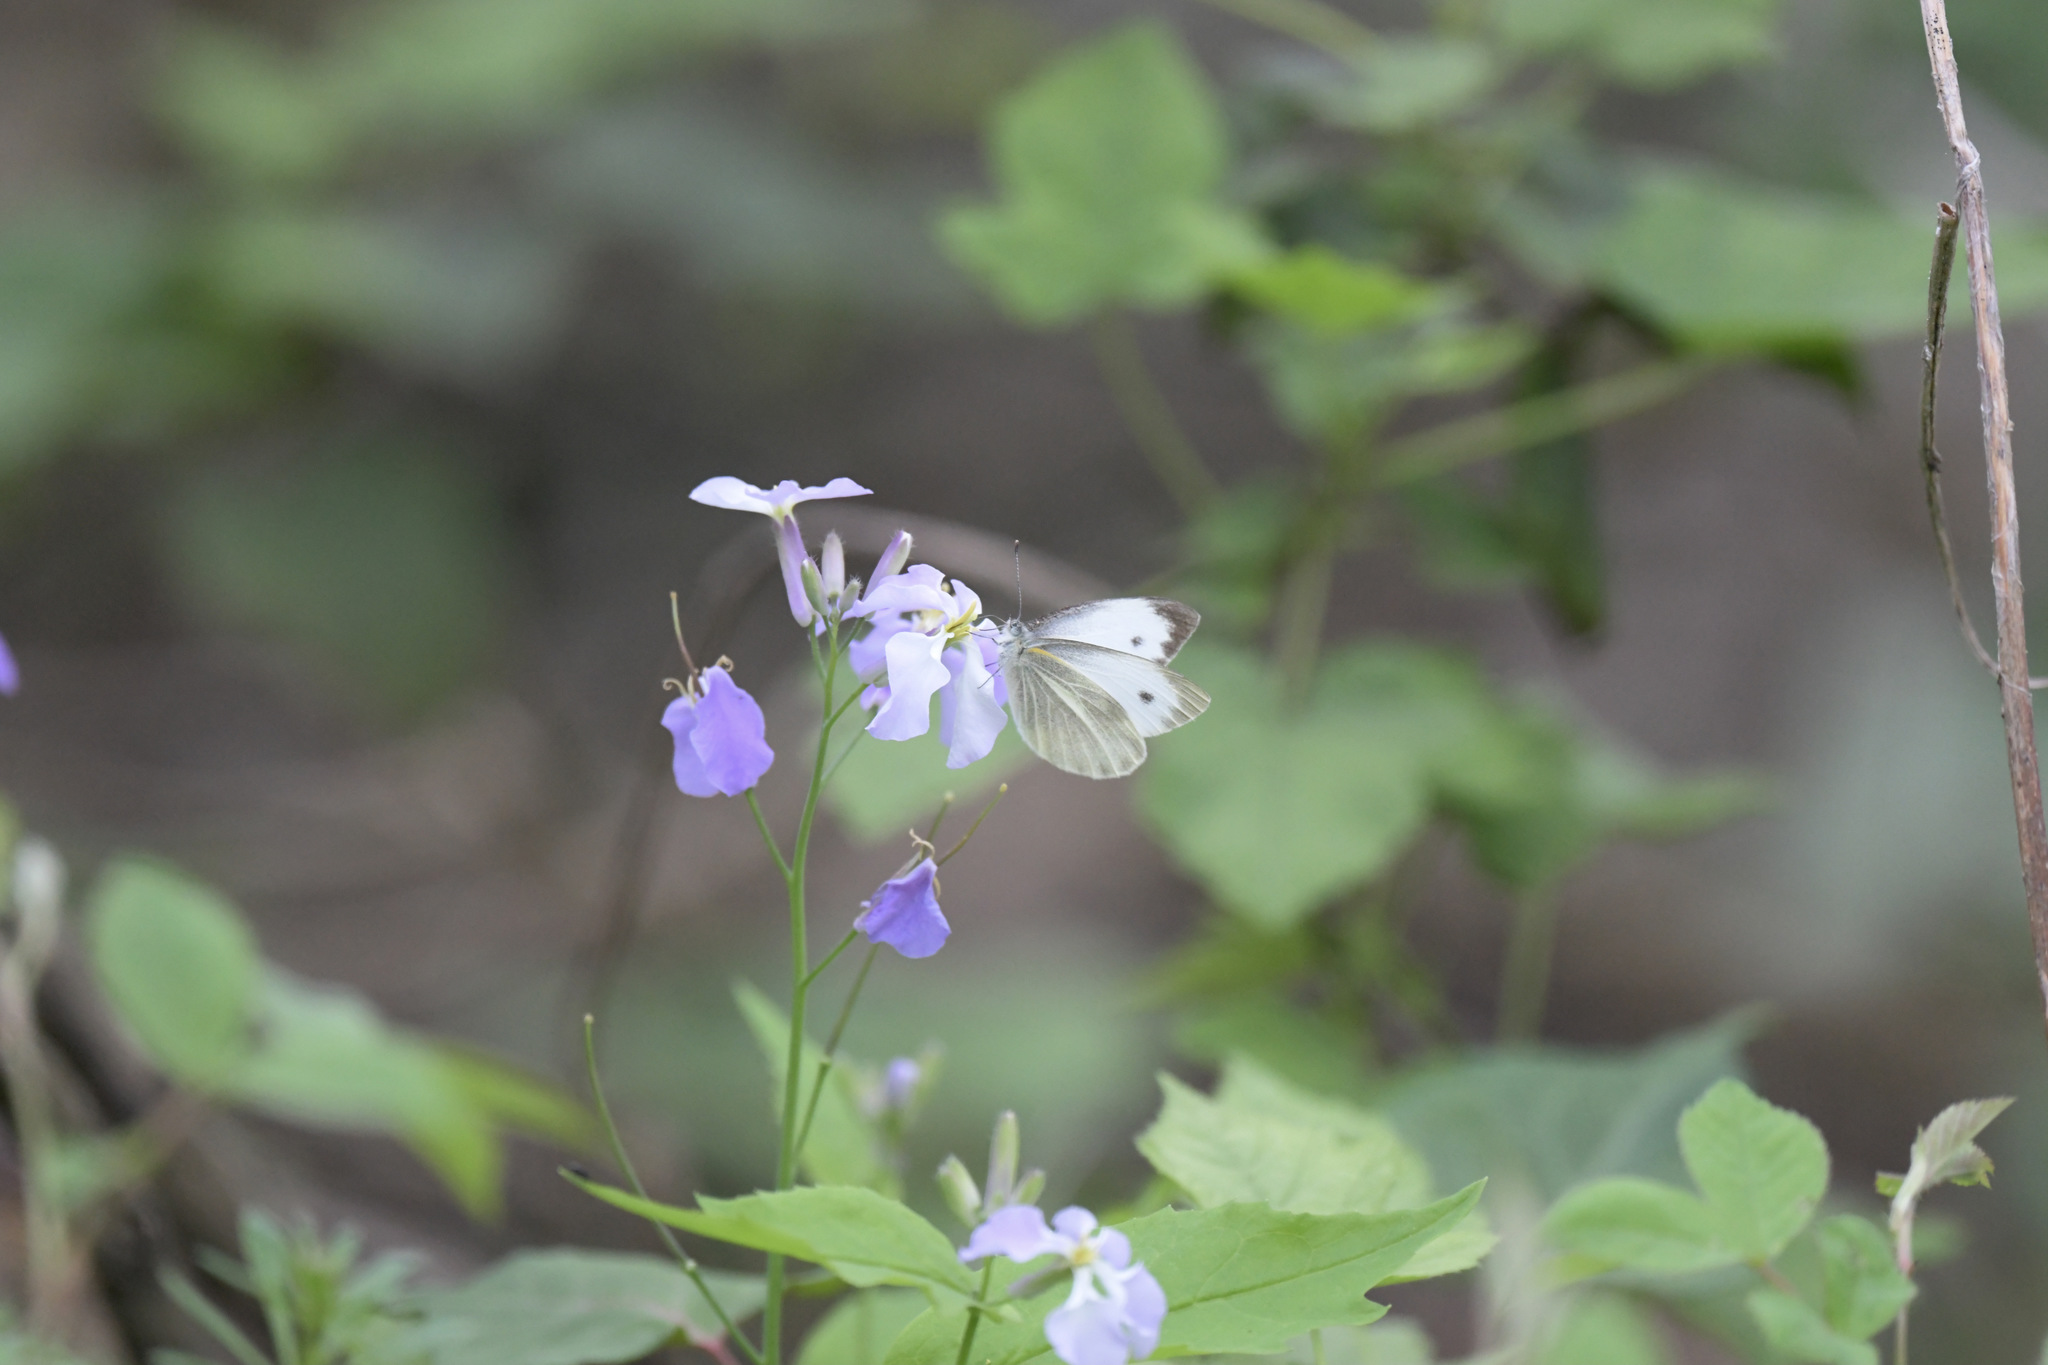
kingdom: Animalia
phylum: Arthropoda
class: Insecta
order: Lepidoptera
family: Pieridae
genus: Pieris
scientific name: Pieris canidia
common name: Indian cabbage white
